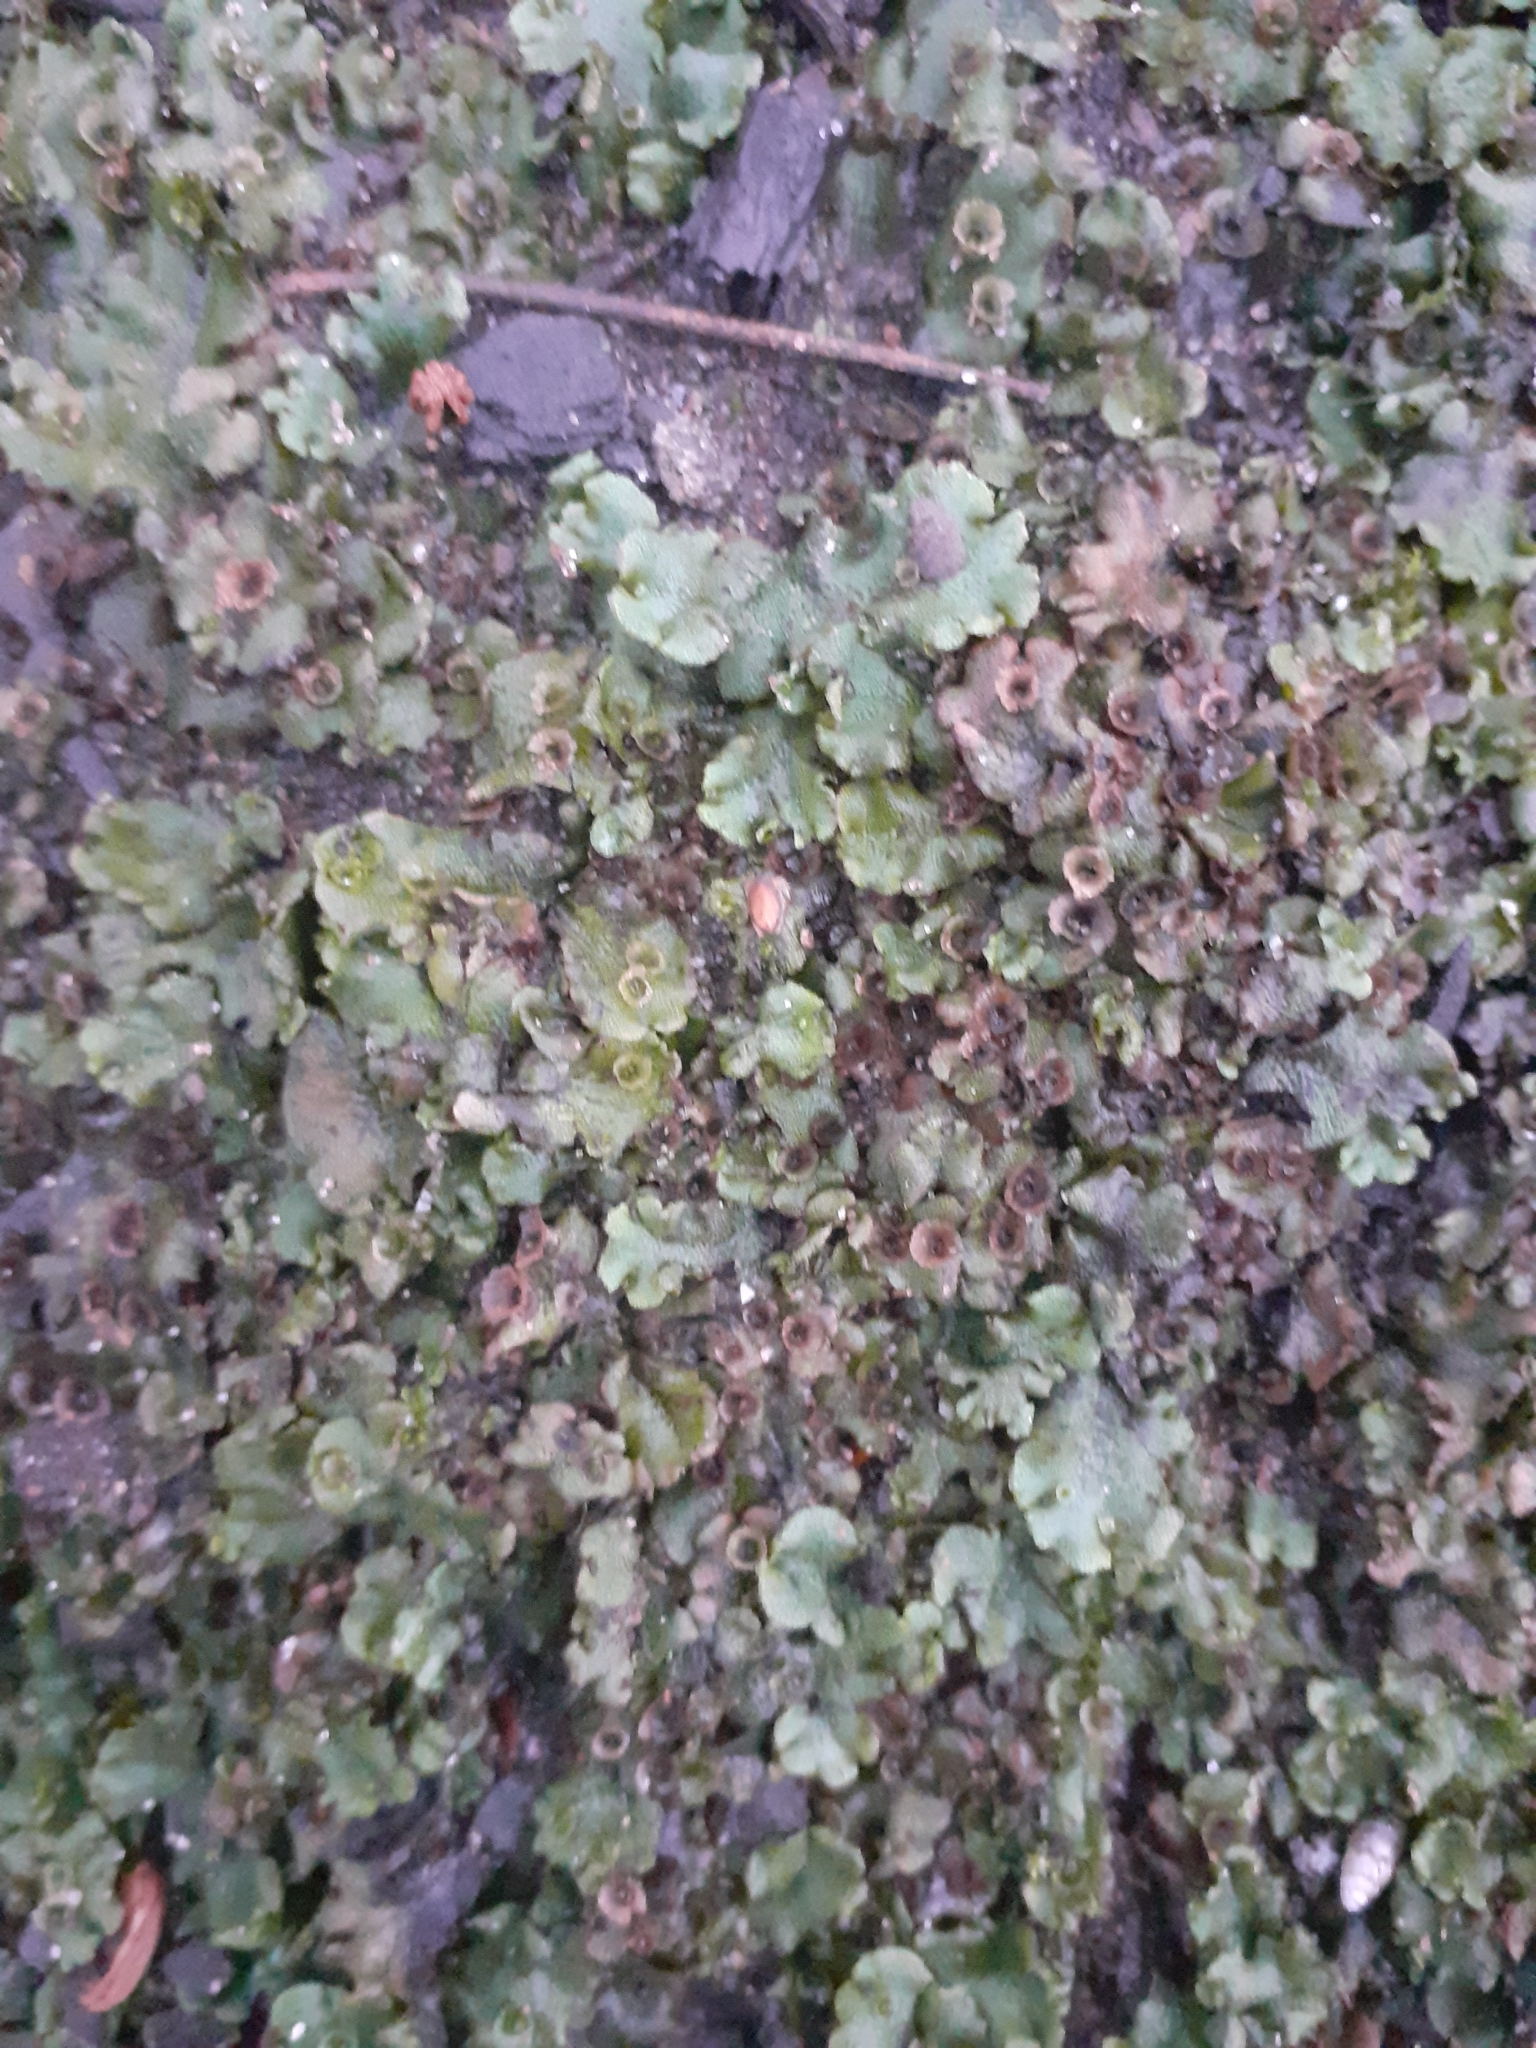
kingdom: Plantae
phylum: Marchantiophyta
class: Marchantiopsida
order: Marchantiales
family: Marchantiaceae
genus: Marchantia
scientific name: Marchantia polymorpha
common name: Common liverwort
